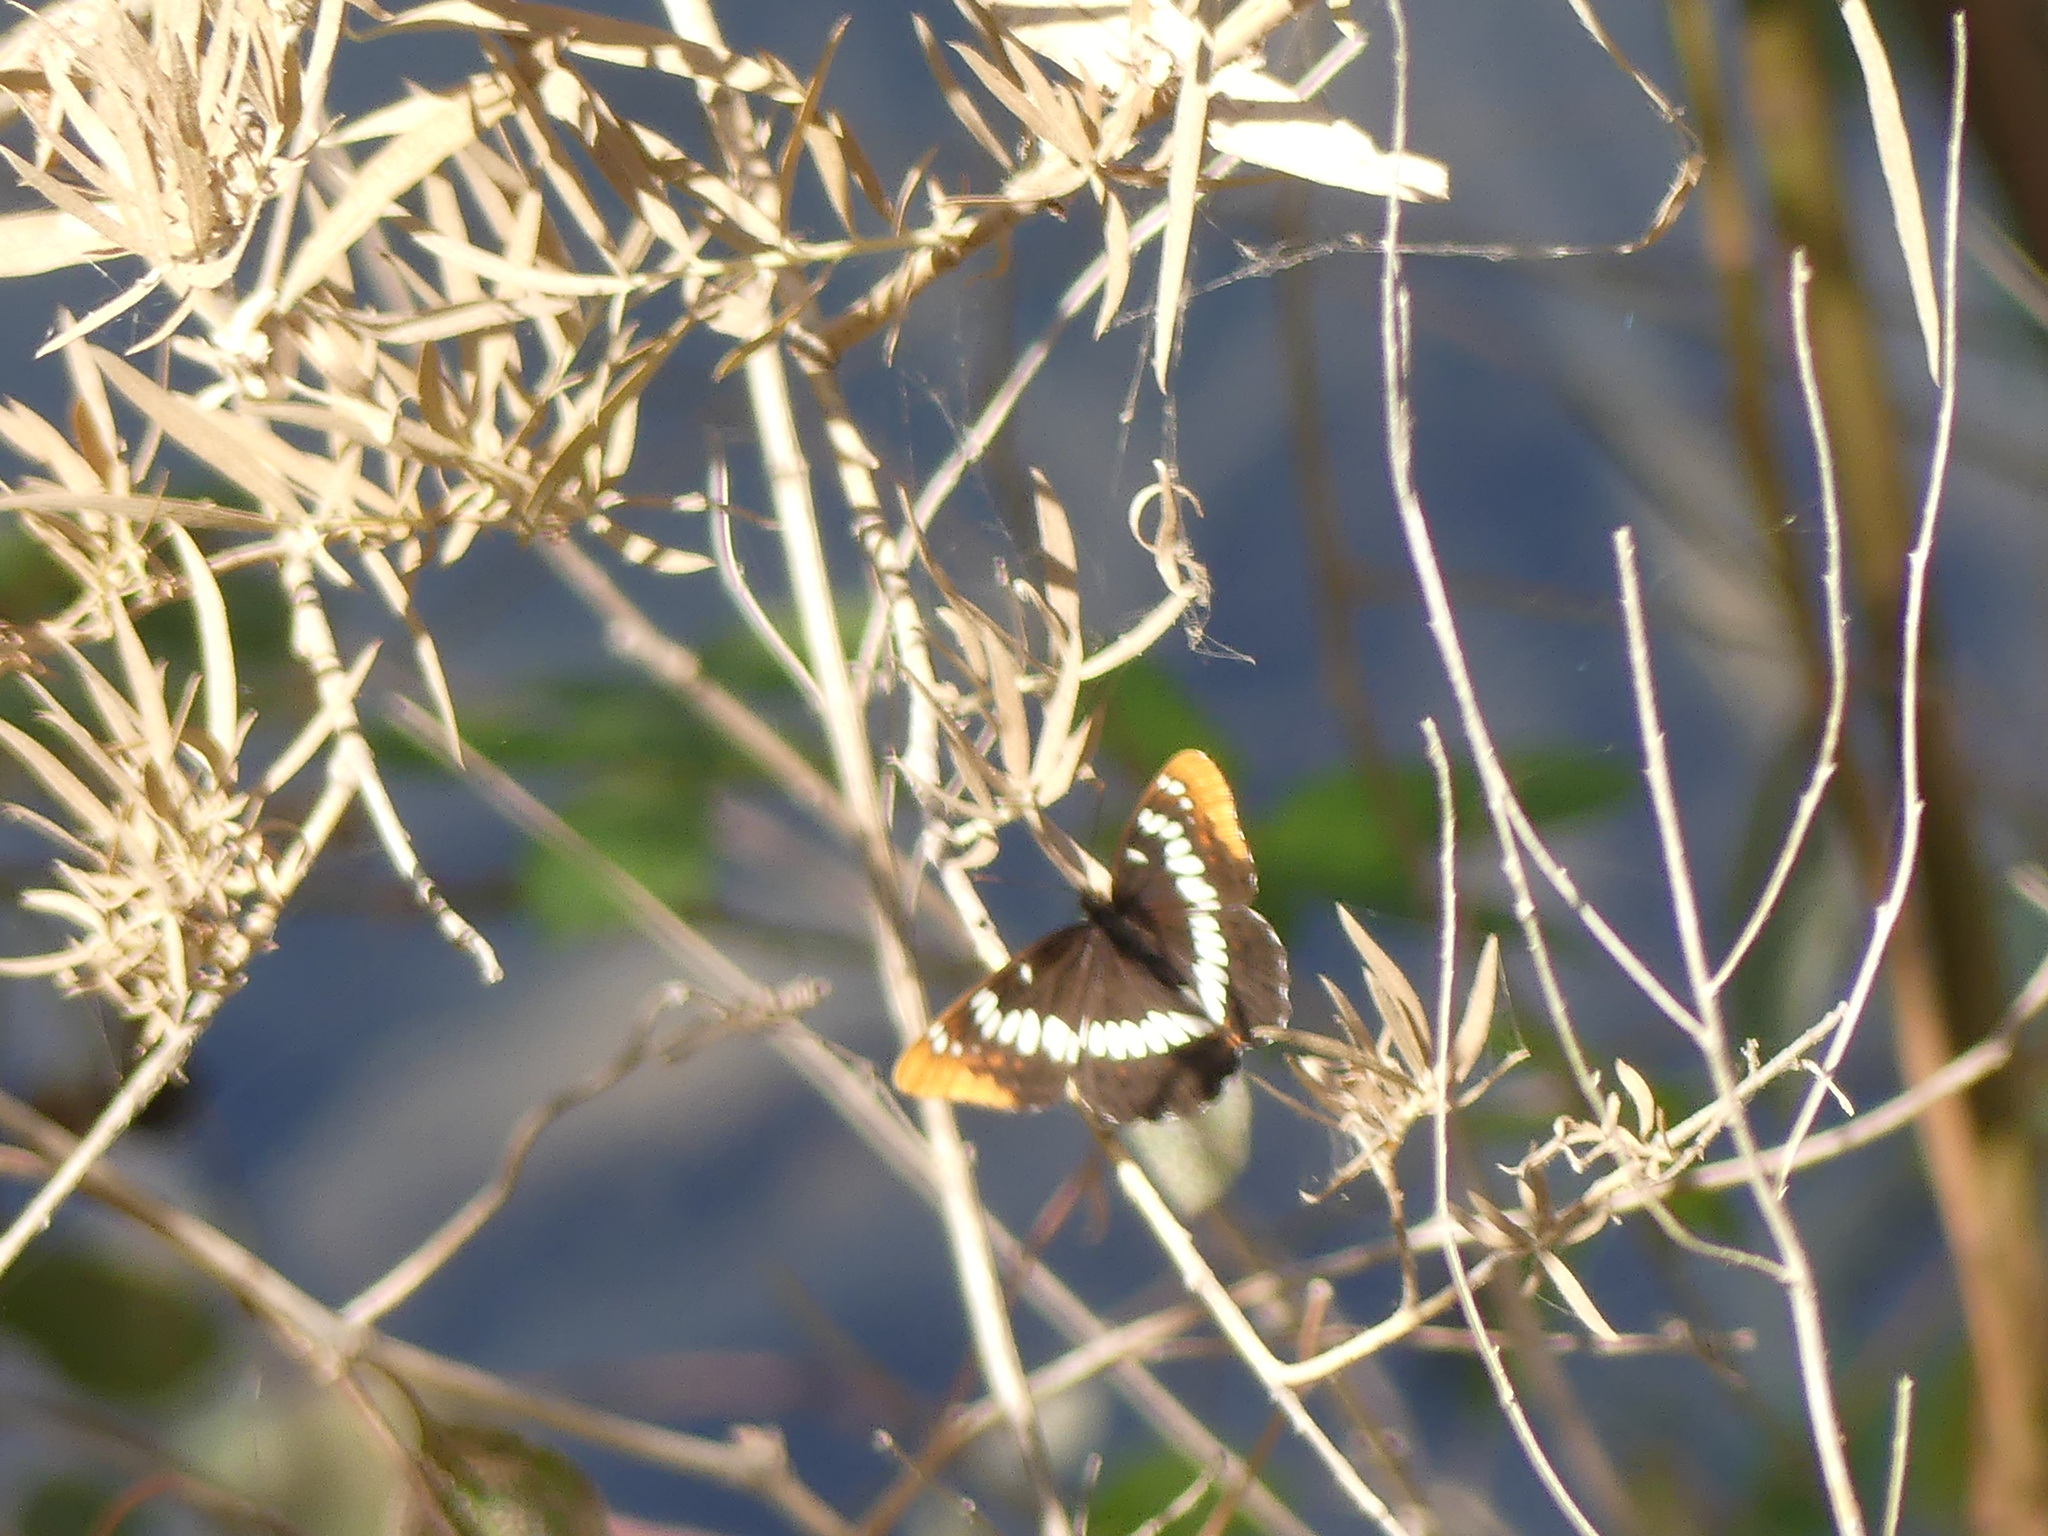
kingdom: Animalia
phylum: Arthropoda
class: Insecta
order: Lepidoptera
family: Nymphalidae
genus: Limenitis
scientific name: Limenitis lorquini
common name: Lorquin's admiral
